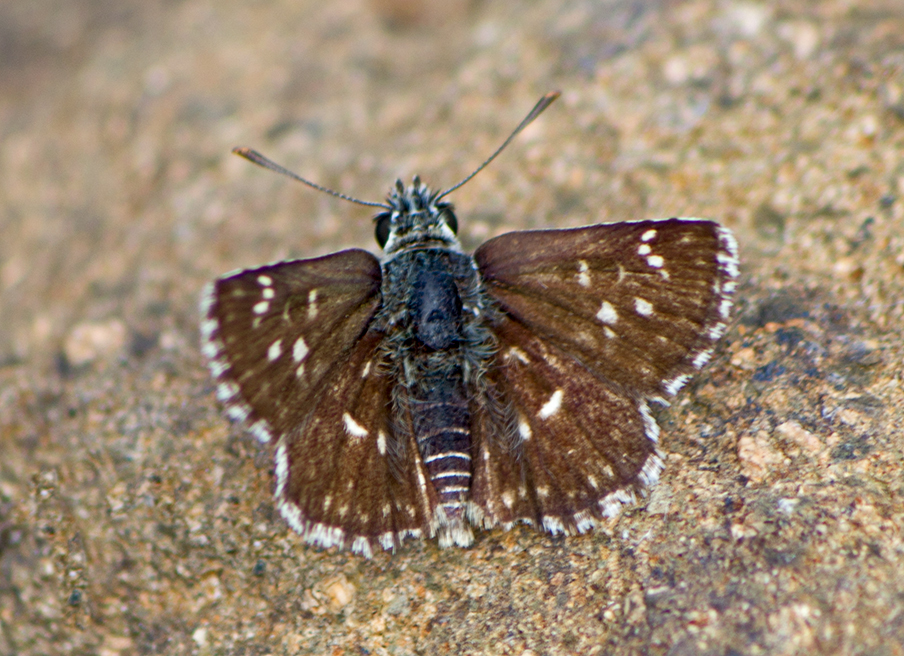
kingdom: Animalia
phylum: Arthropoda
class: Insecta
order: Lepidoptera
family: Hesperiidae
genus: Spialia
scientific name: Spialia sertorius
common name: Red underwing skipper
